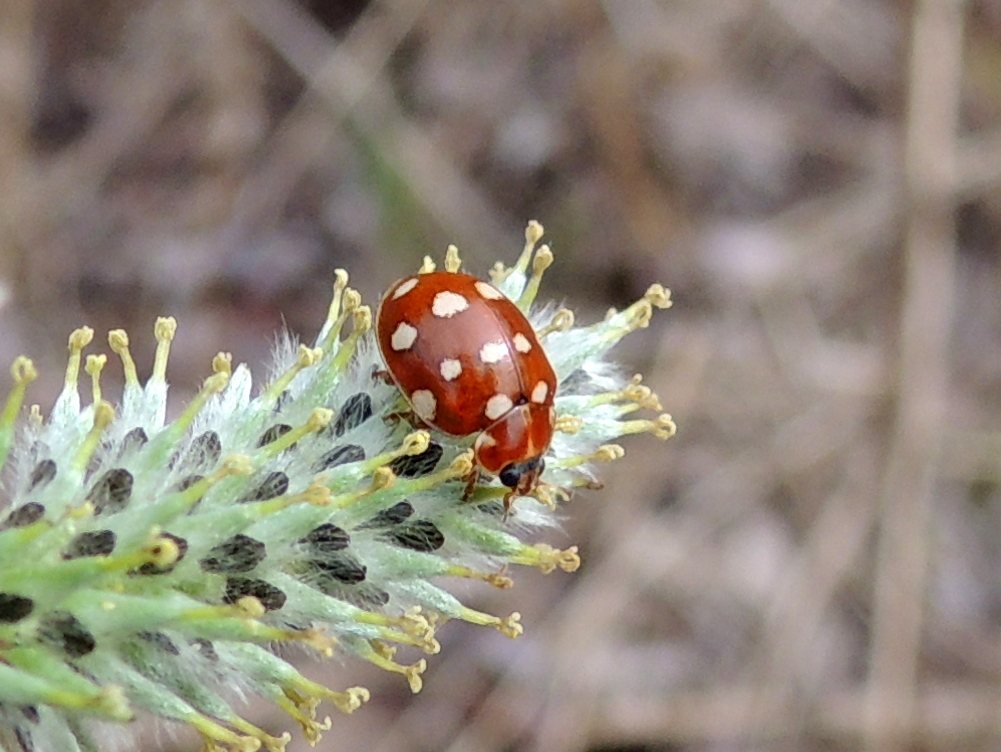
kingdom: Animalia
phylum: Arthropoda
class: Insecta
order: Coleoptera
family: Coccinellidae
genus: Calvia
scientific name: Calvia quatuordecimguttata
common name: Cream-spot ladybird
